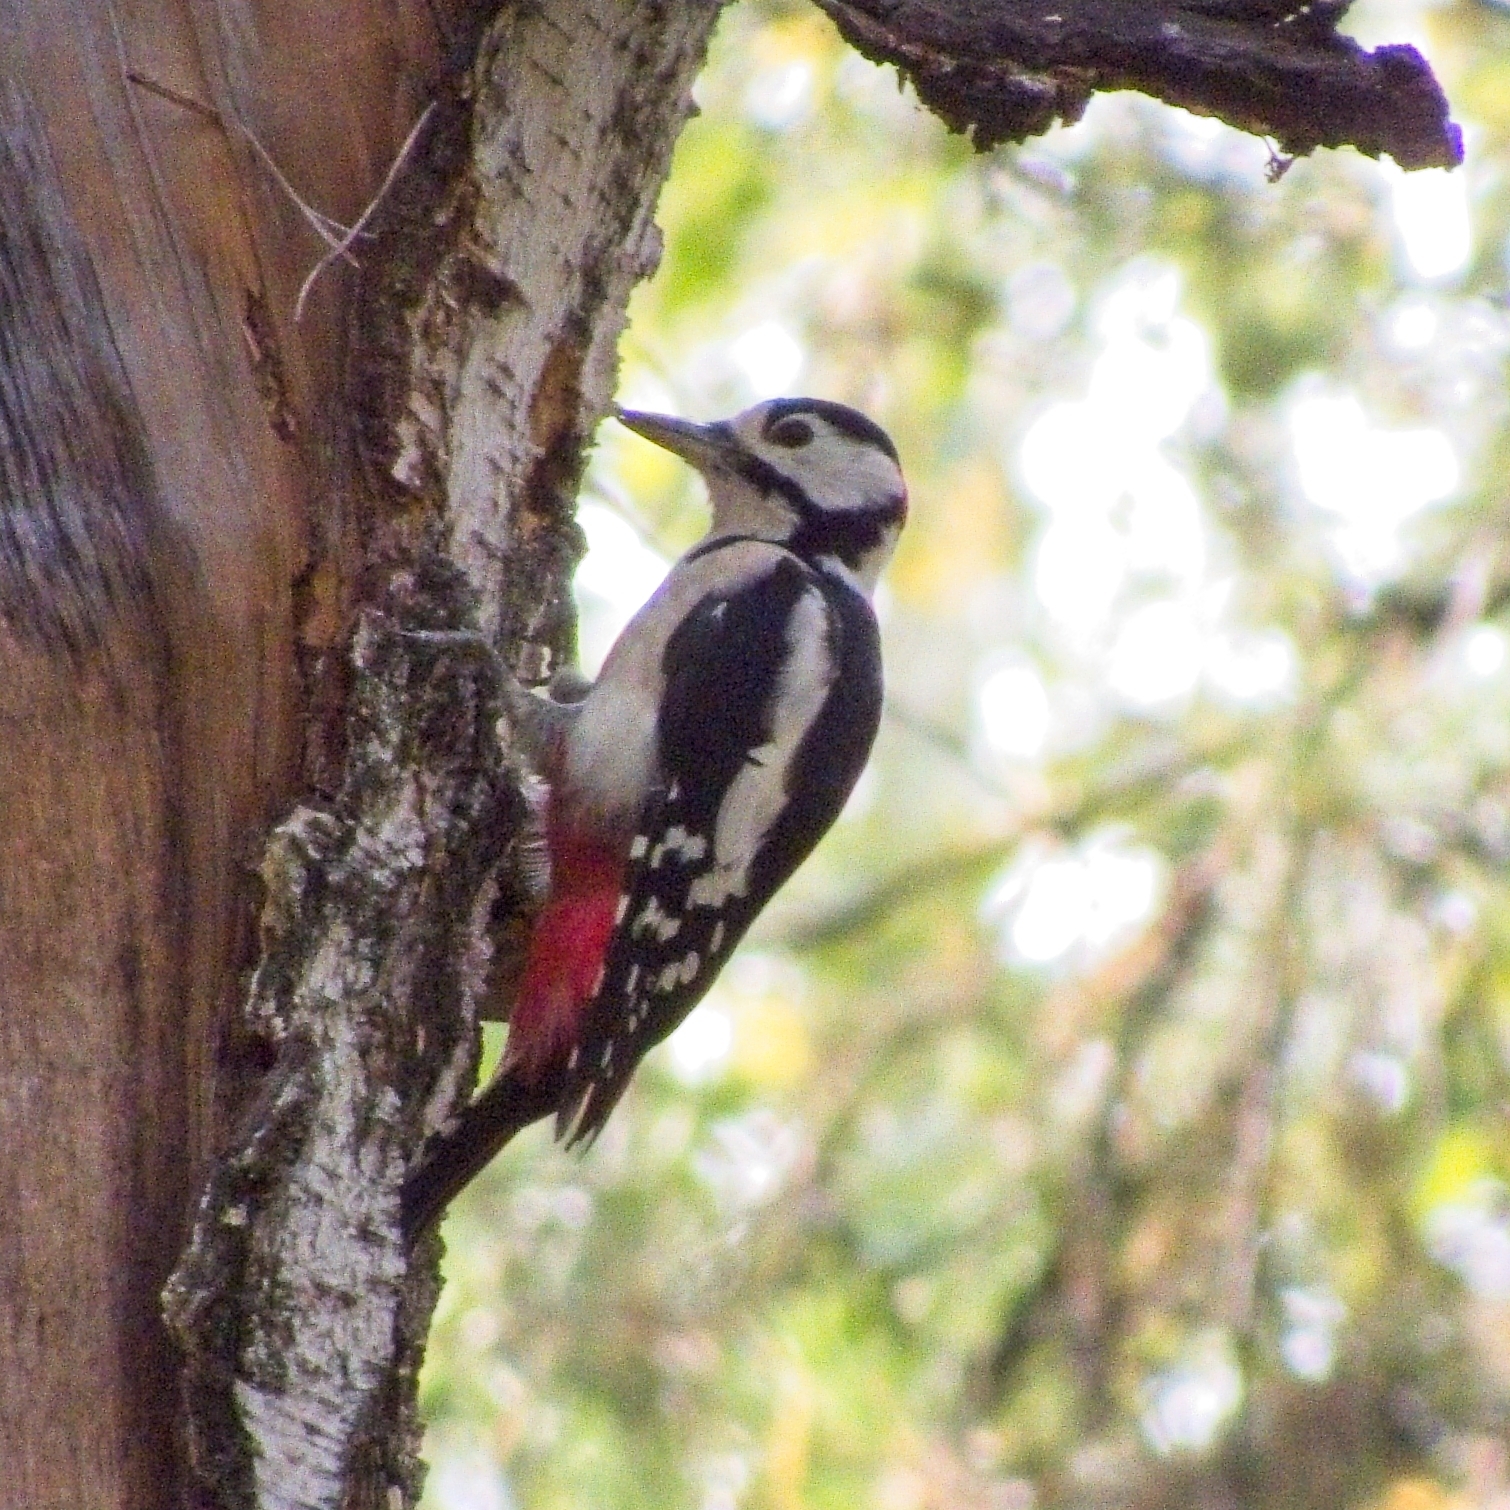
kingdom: Animalia
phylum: Chordata
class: Aves
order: Piciformes
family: Picidae
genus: Dendrocopos
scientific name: Dendrocopos major
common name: Great spotted woodpecker
